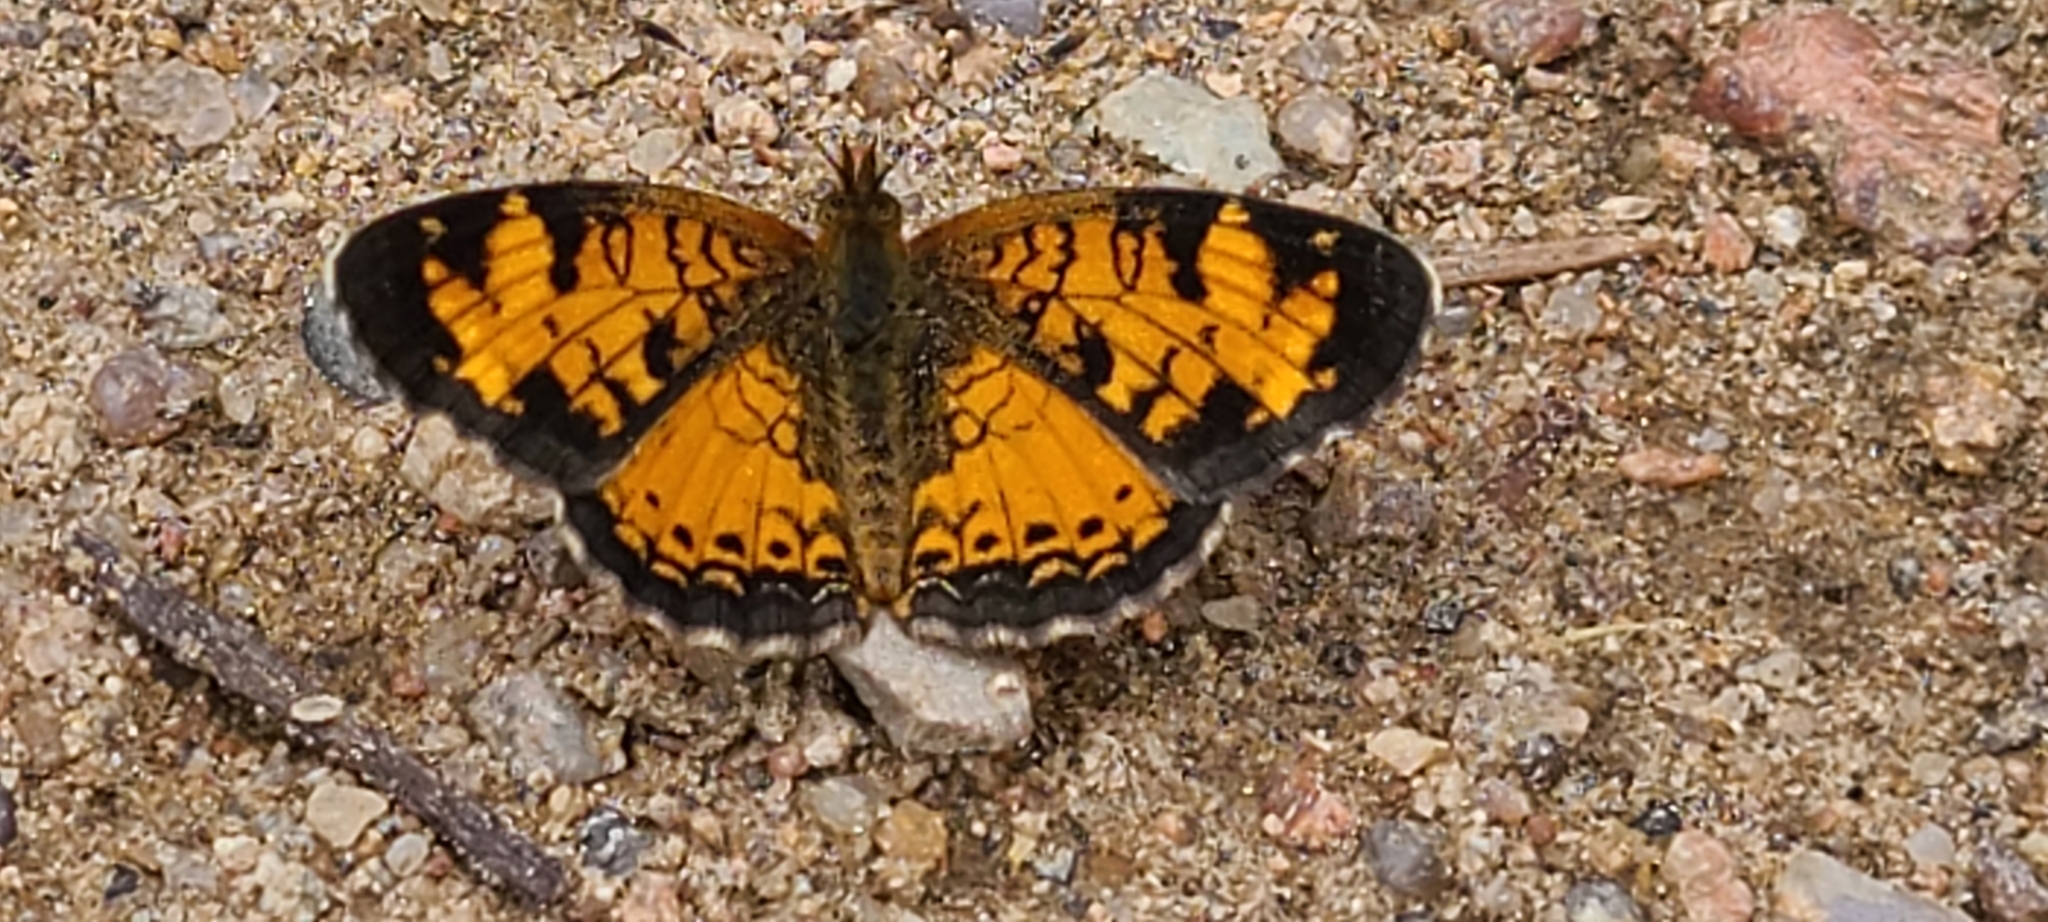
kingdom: Animalia
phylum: Arthropoda
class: Insecta
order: Lepidoptera
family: Nymphalidae
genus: Phyciodes
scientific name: Phyciodes tharos
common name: Pearl crescent
